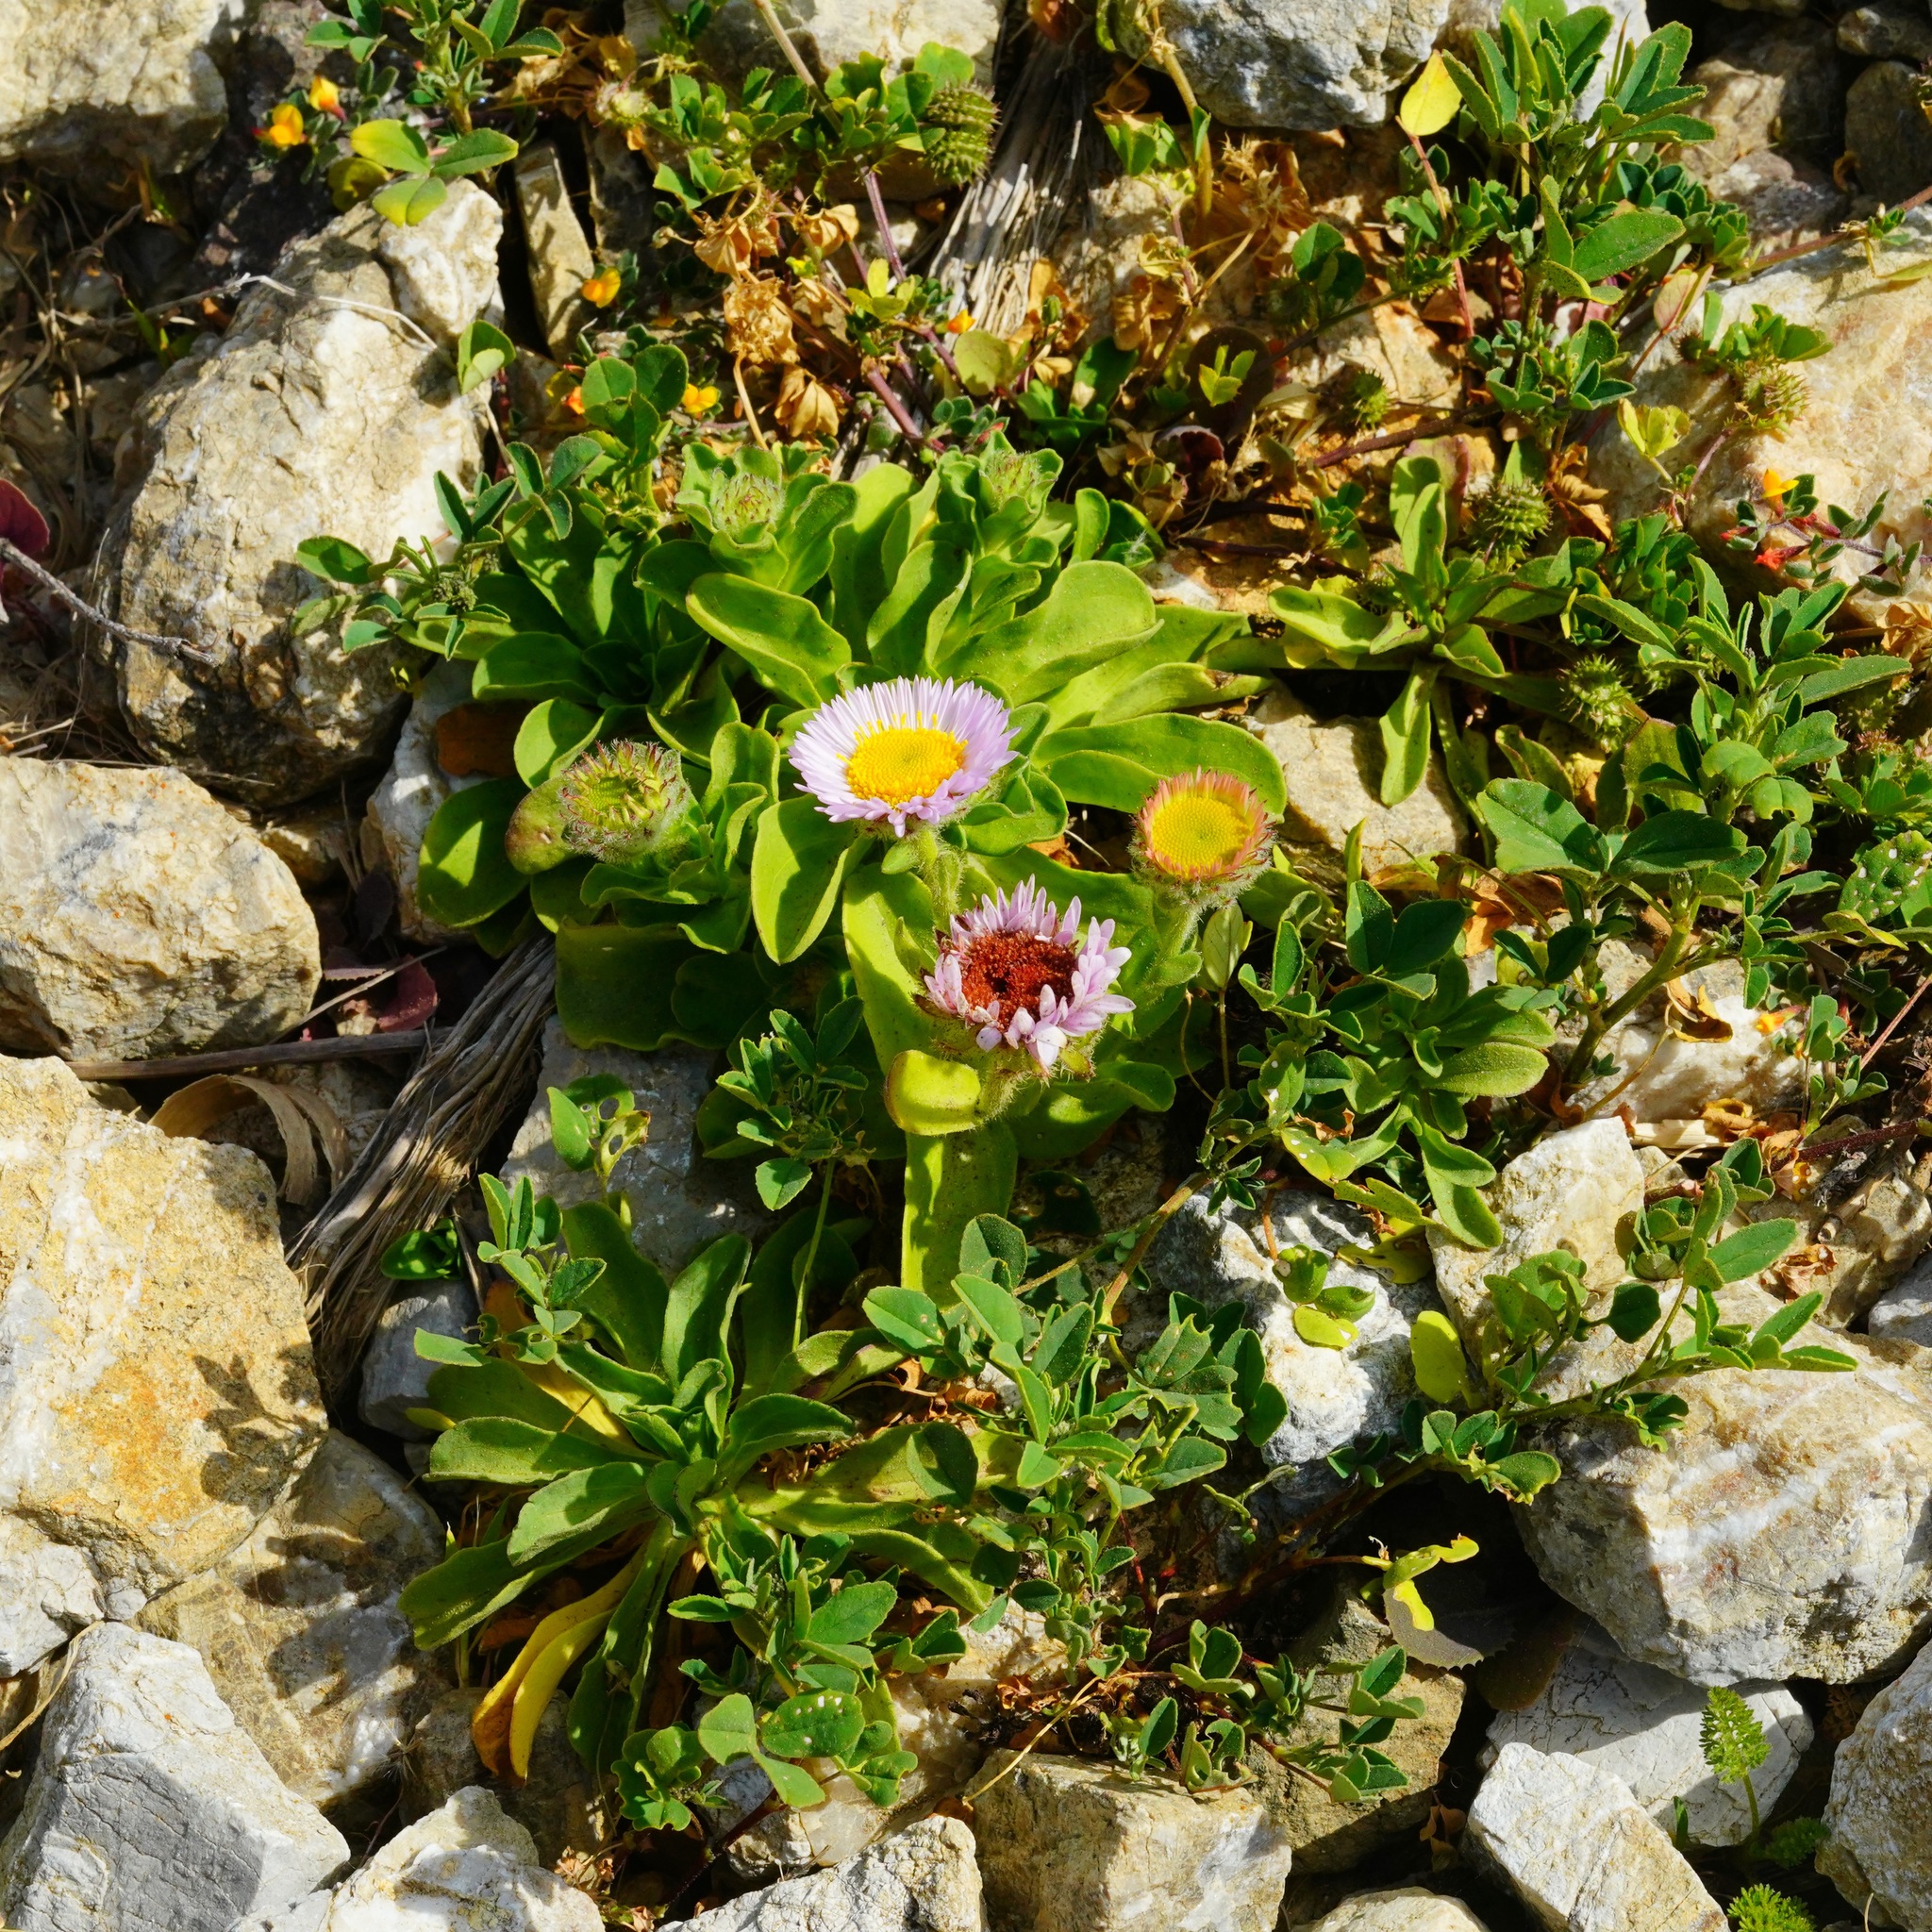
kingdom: Plantae
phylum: Tracheophyta
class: Magnoliopsida
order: Asterales
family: Asteraceae
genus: Erigeron
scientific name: Erigeron glaucus
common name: Seaside daisy
